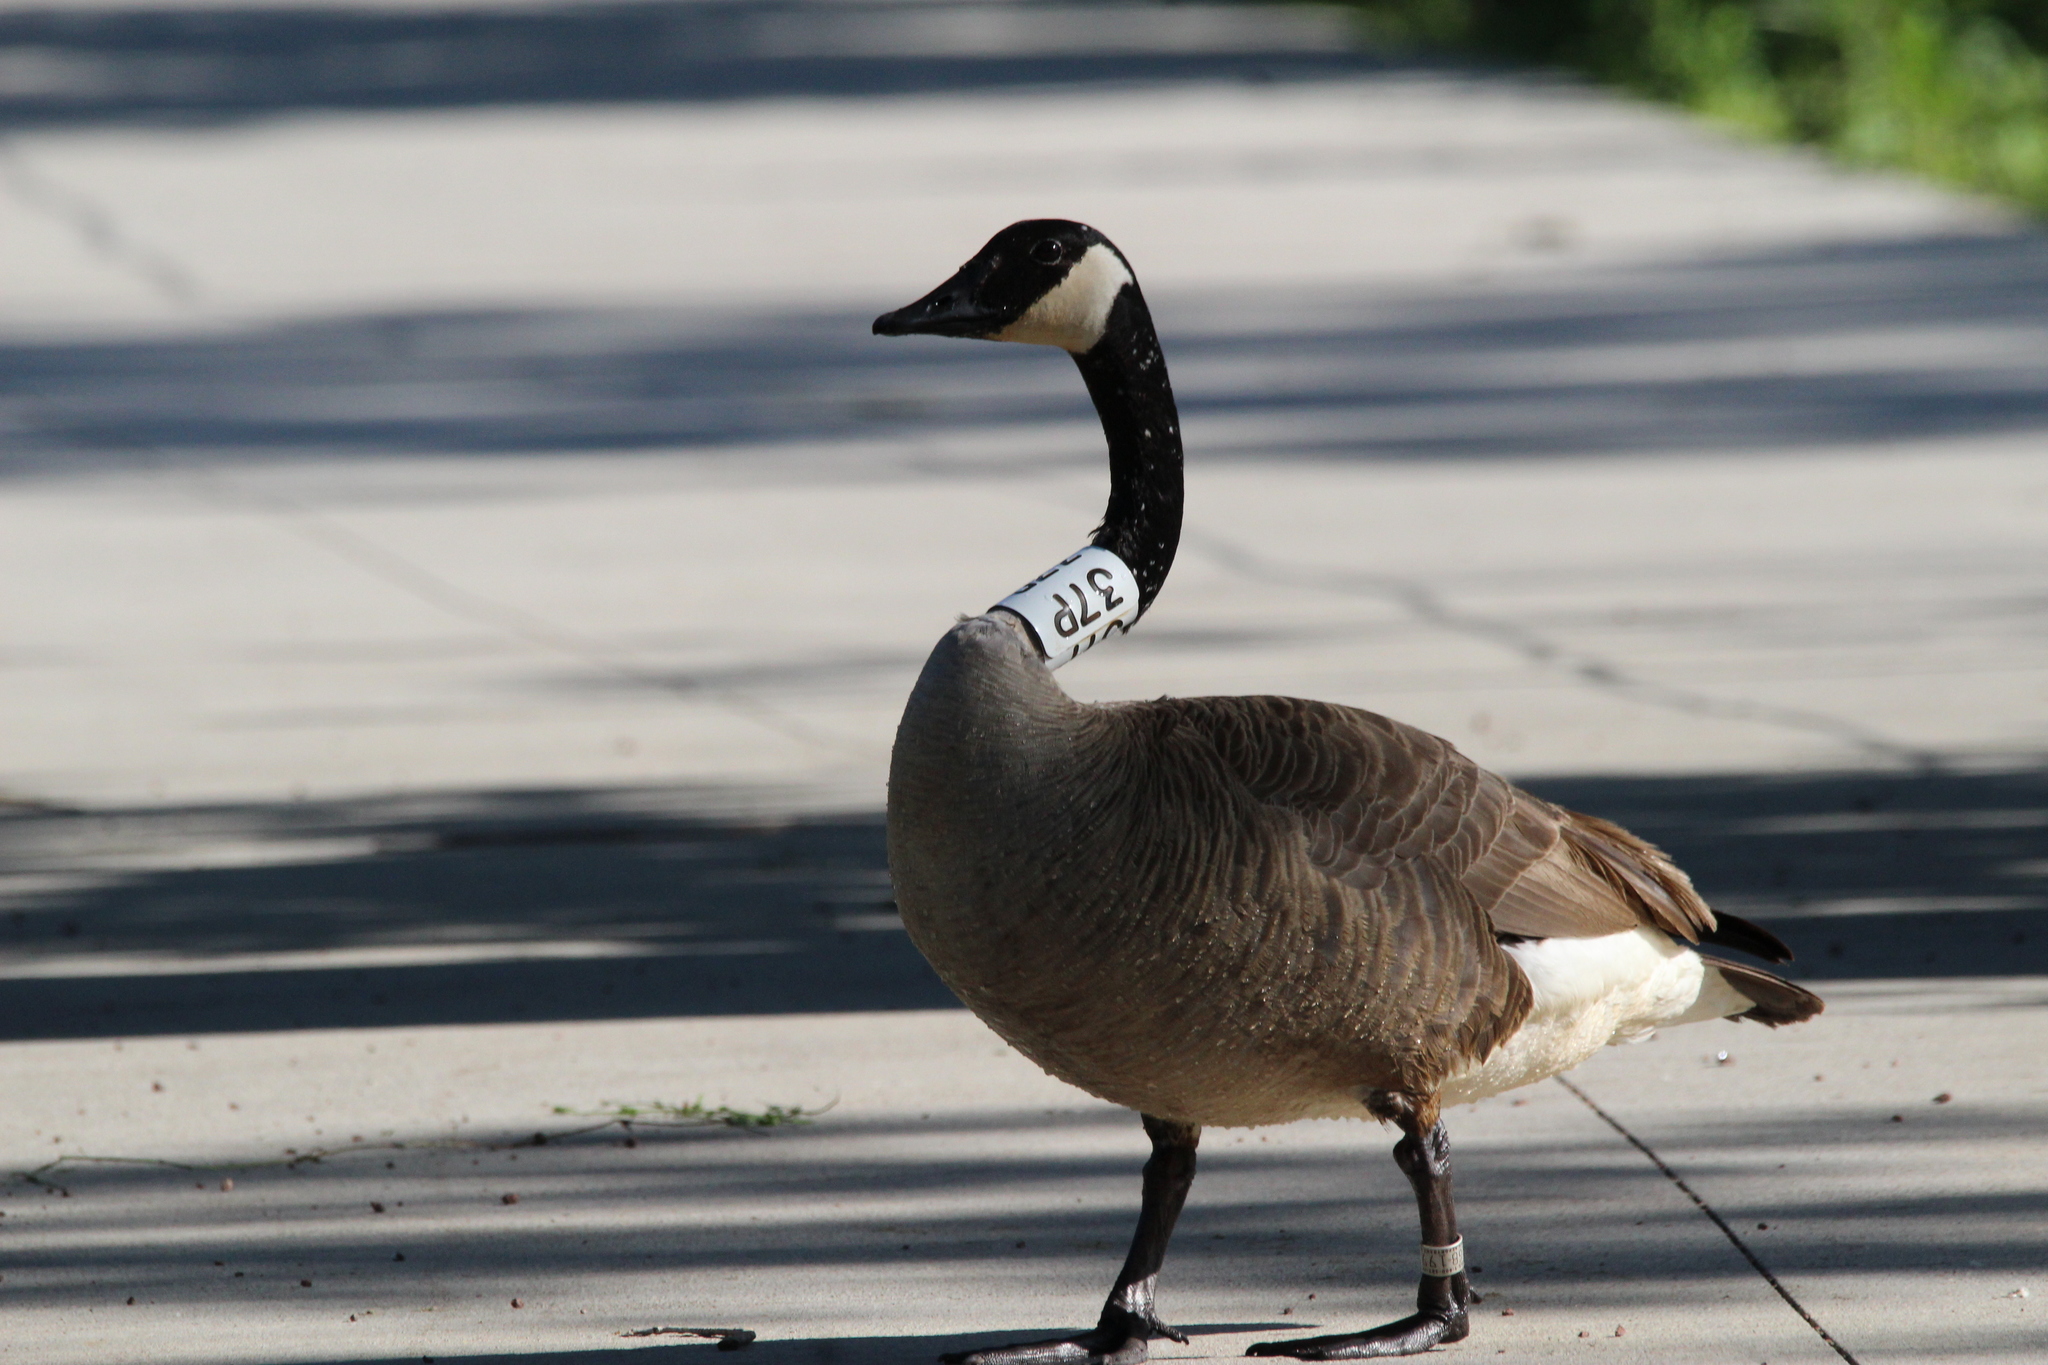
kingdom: Animalia
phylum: Chordata
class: Aves
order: Anseriformes
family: Anatidae
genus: Branta
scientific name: Branta canadensis
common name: Canada goose
